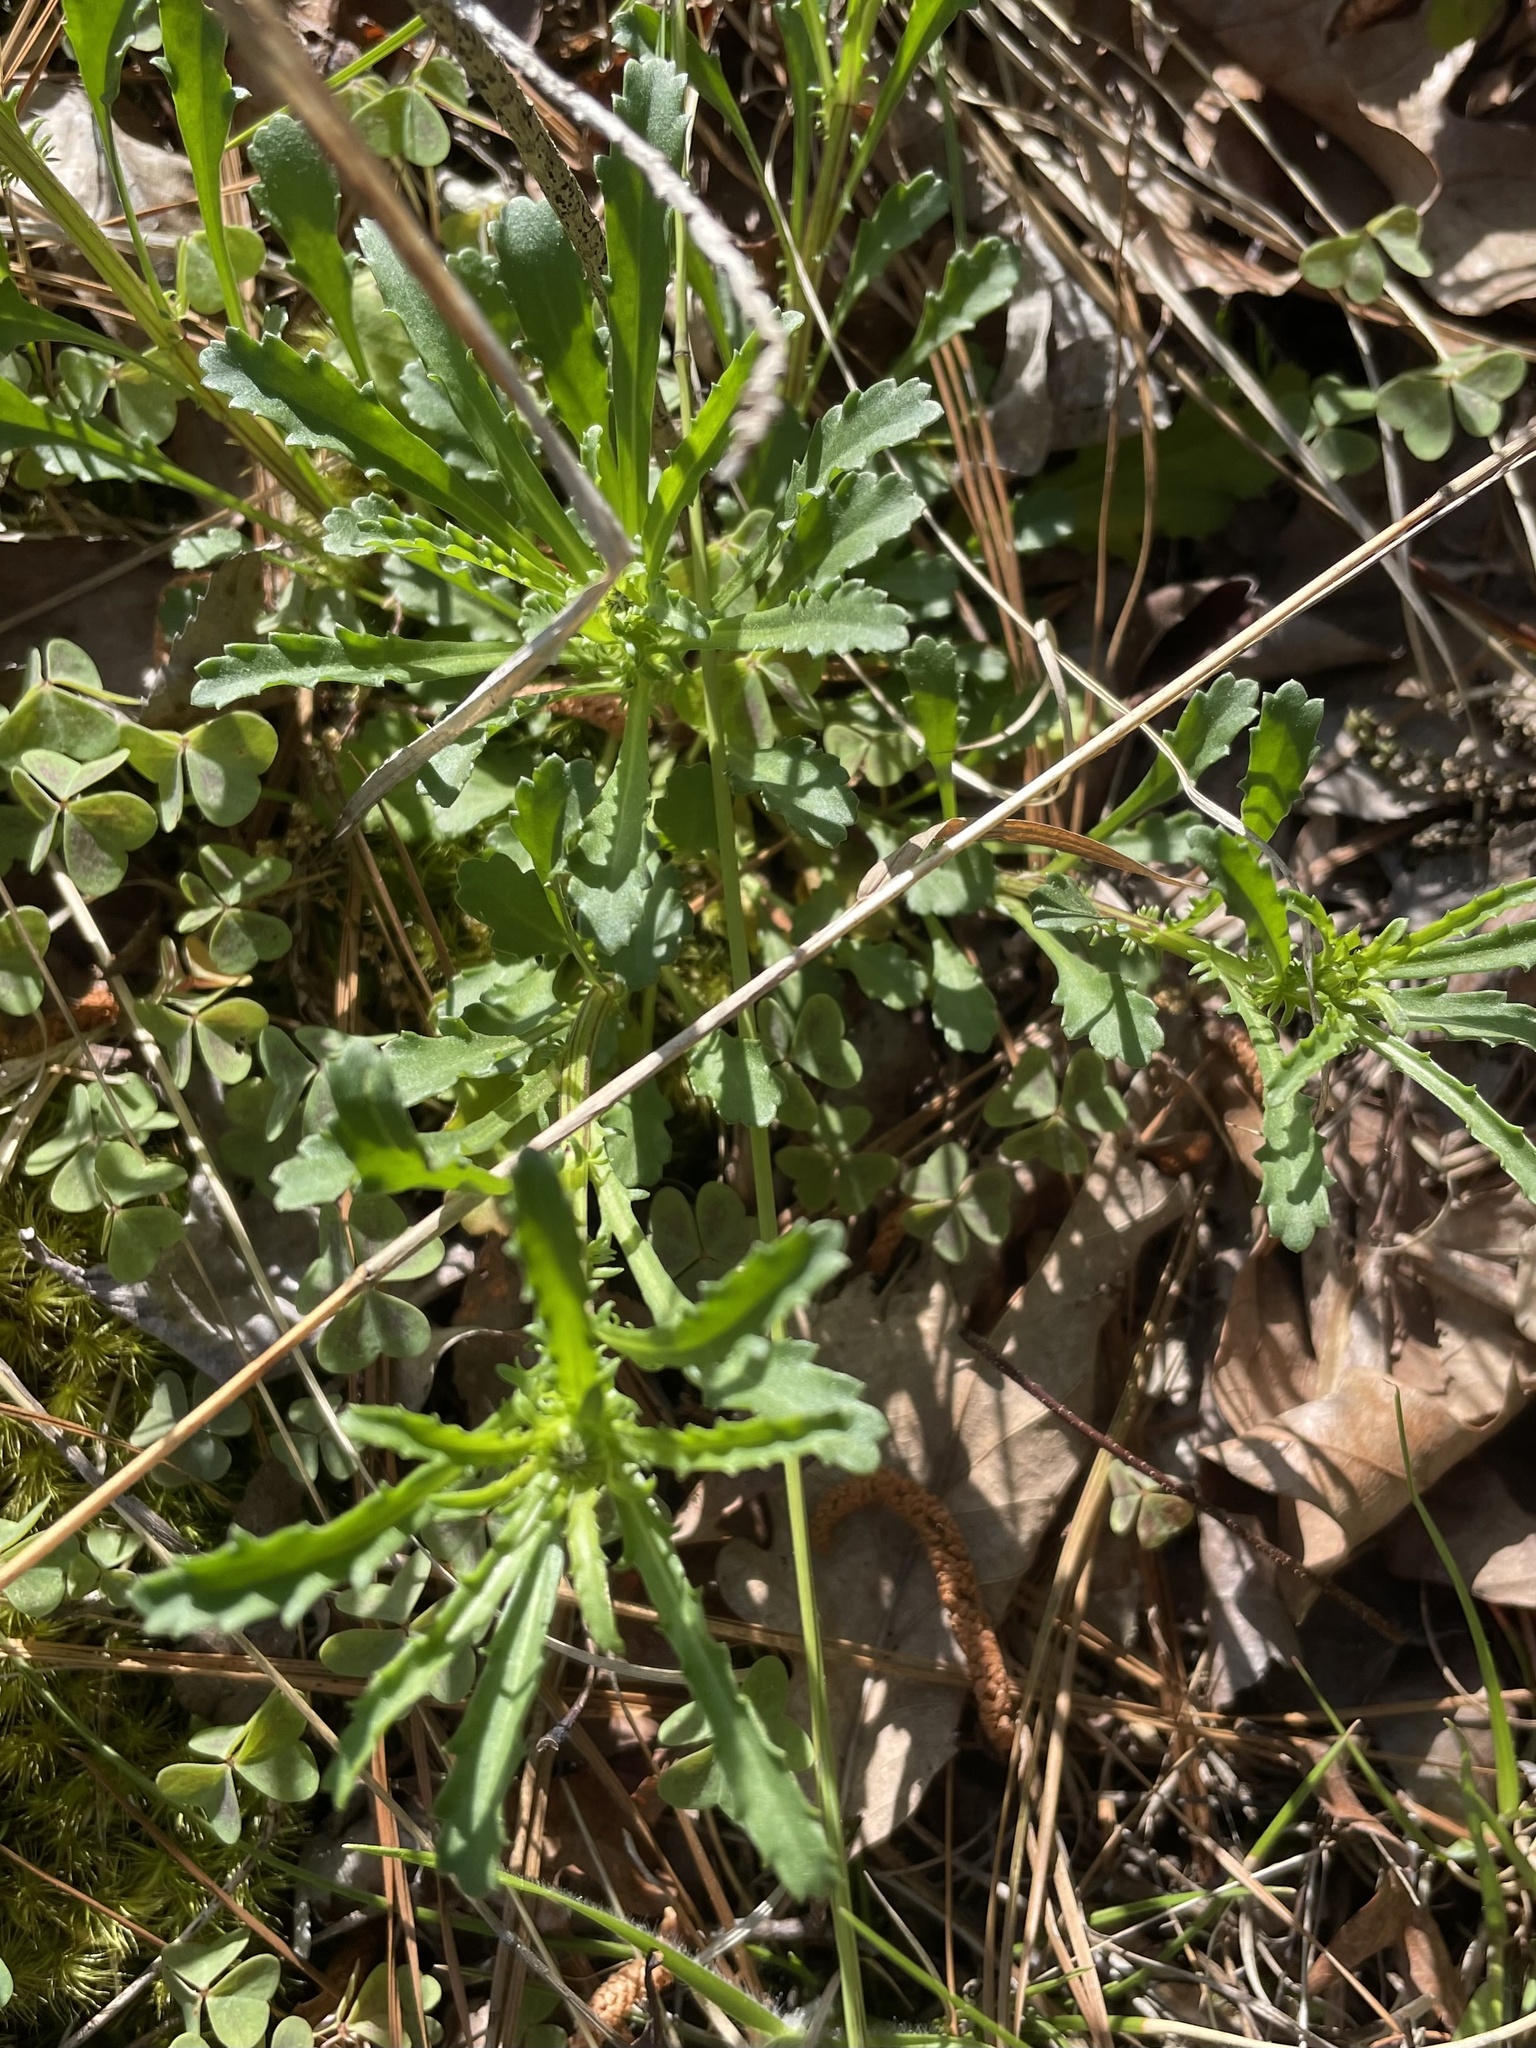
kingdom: Plantae
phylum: Tracheophyta
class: Magnoliopsida
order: Asterales
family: Asteraceae
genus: Leucanthemum
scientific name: Leucanthemum vulgare
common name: Oxeye daisy
